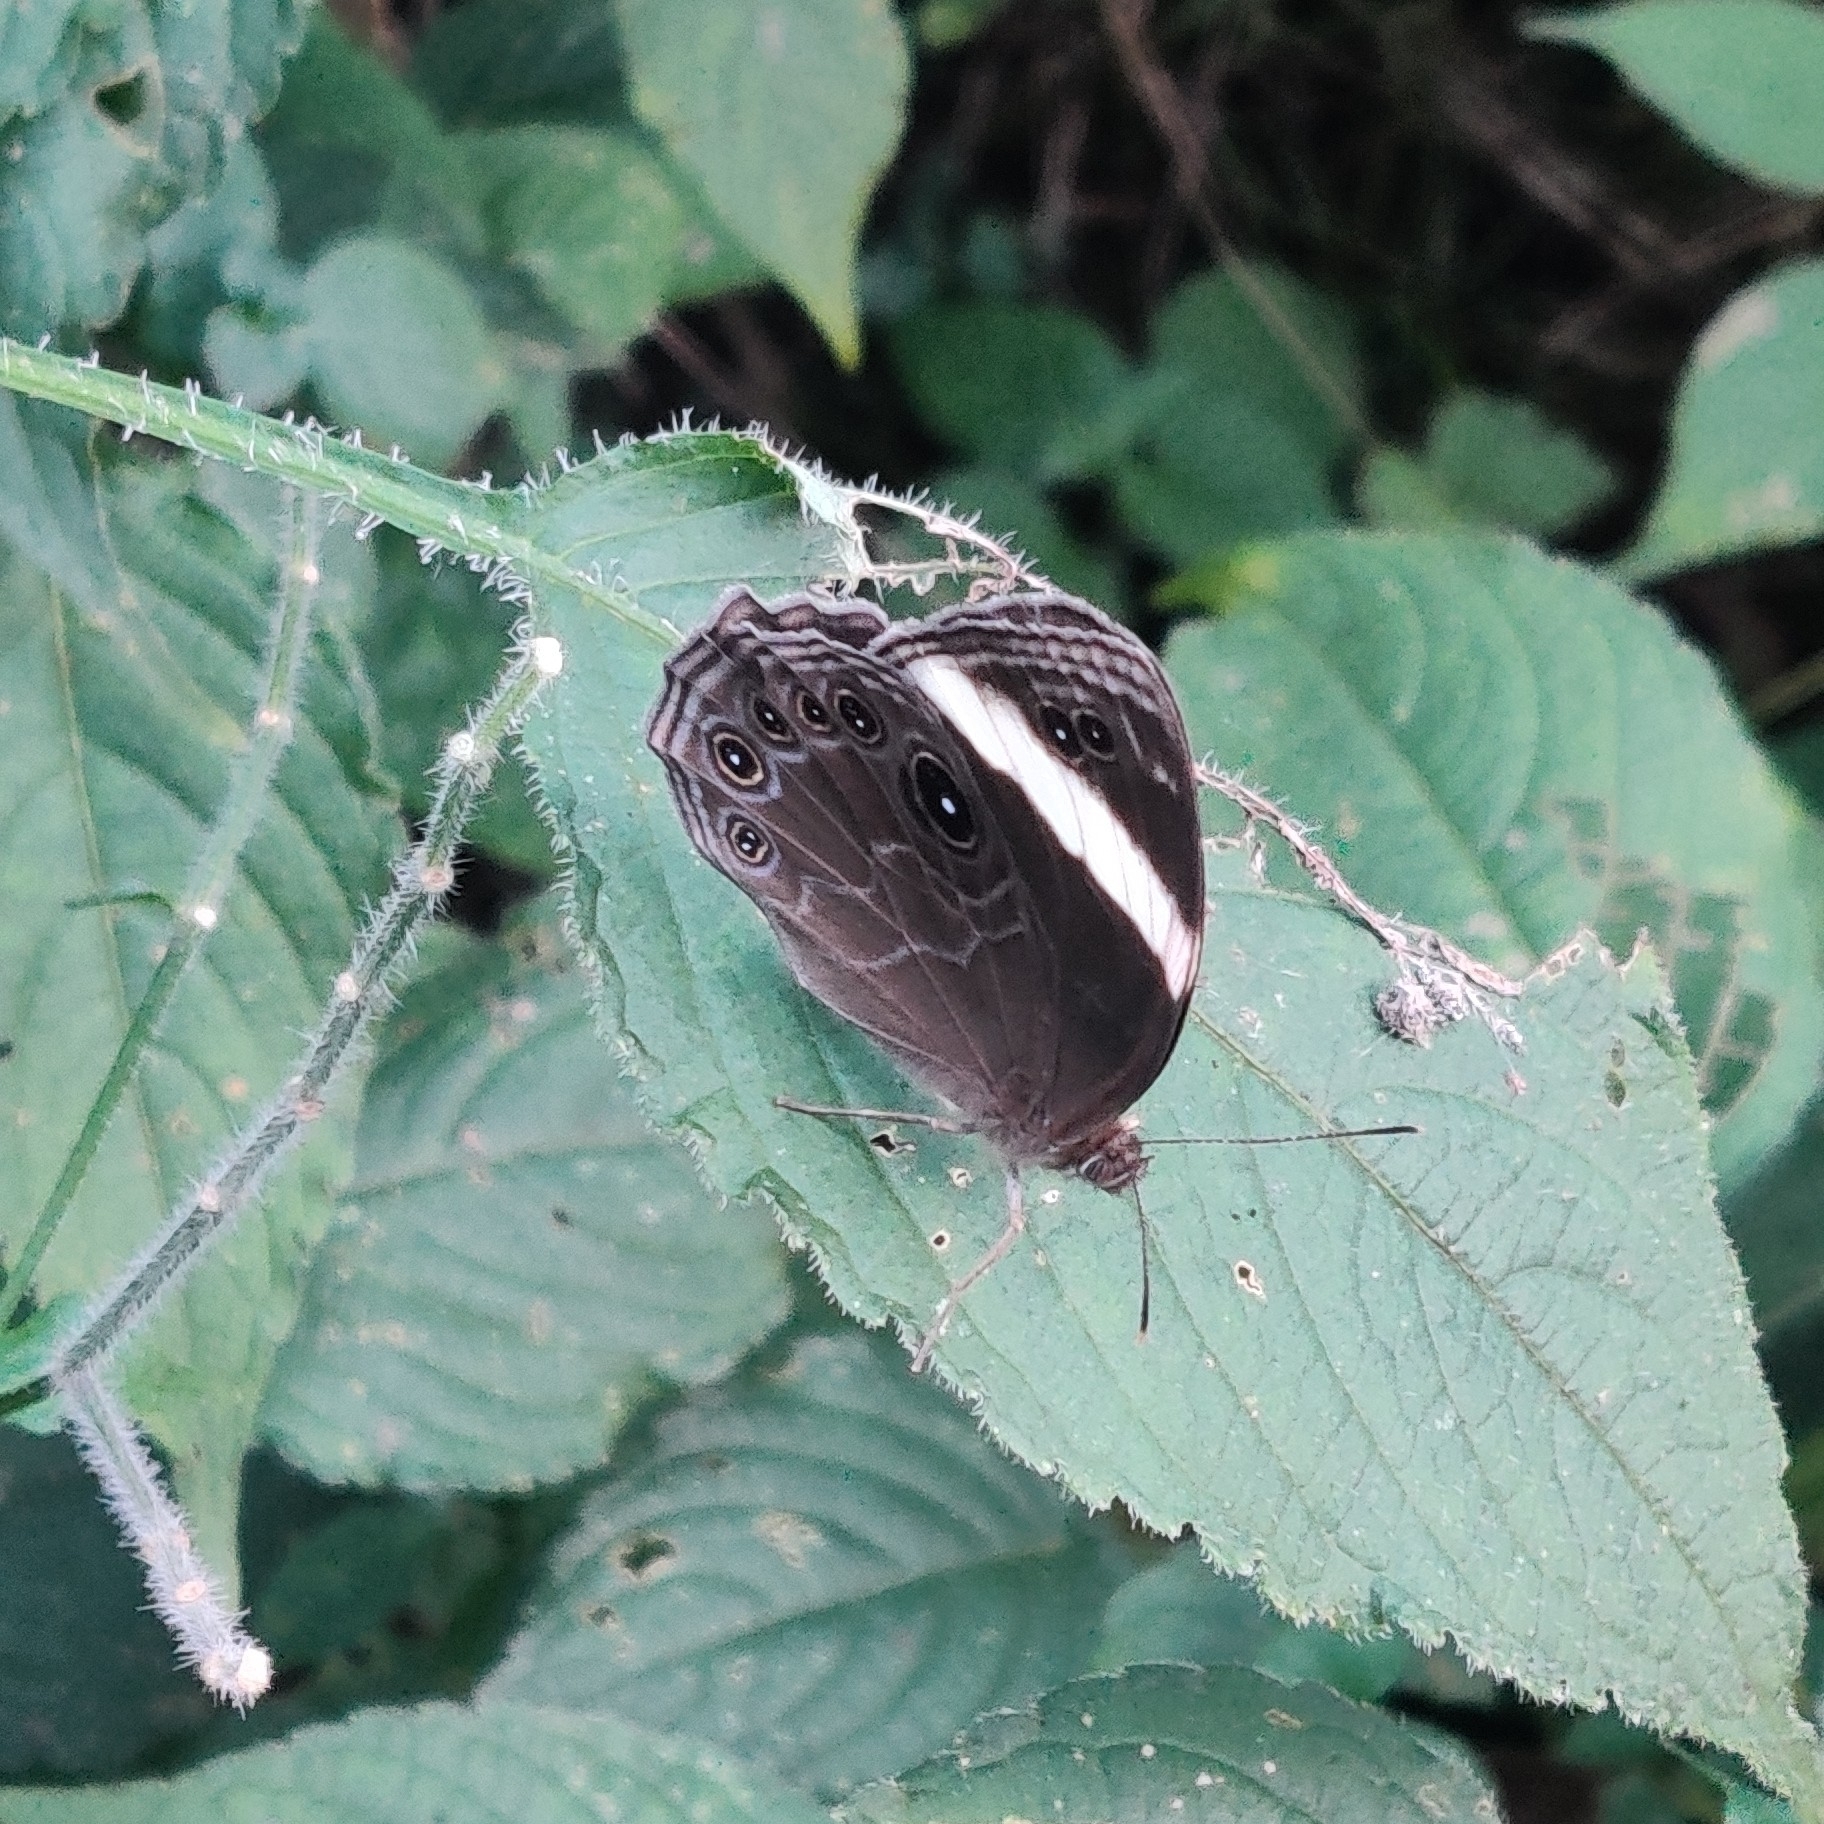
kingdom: Animalia
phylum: Arthropoda
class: Insecta
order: Lepidoptera
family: Nymphalidae
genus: Lethe
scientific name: Lethe verma
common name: Straight-banded treebrown
